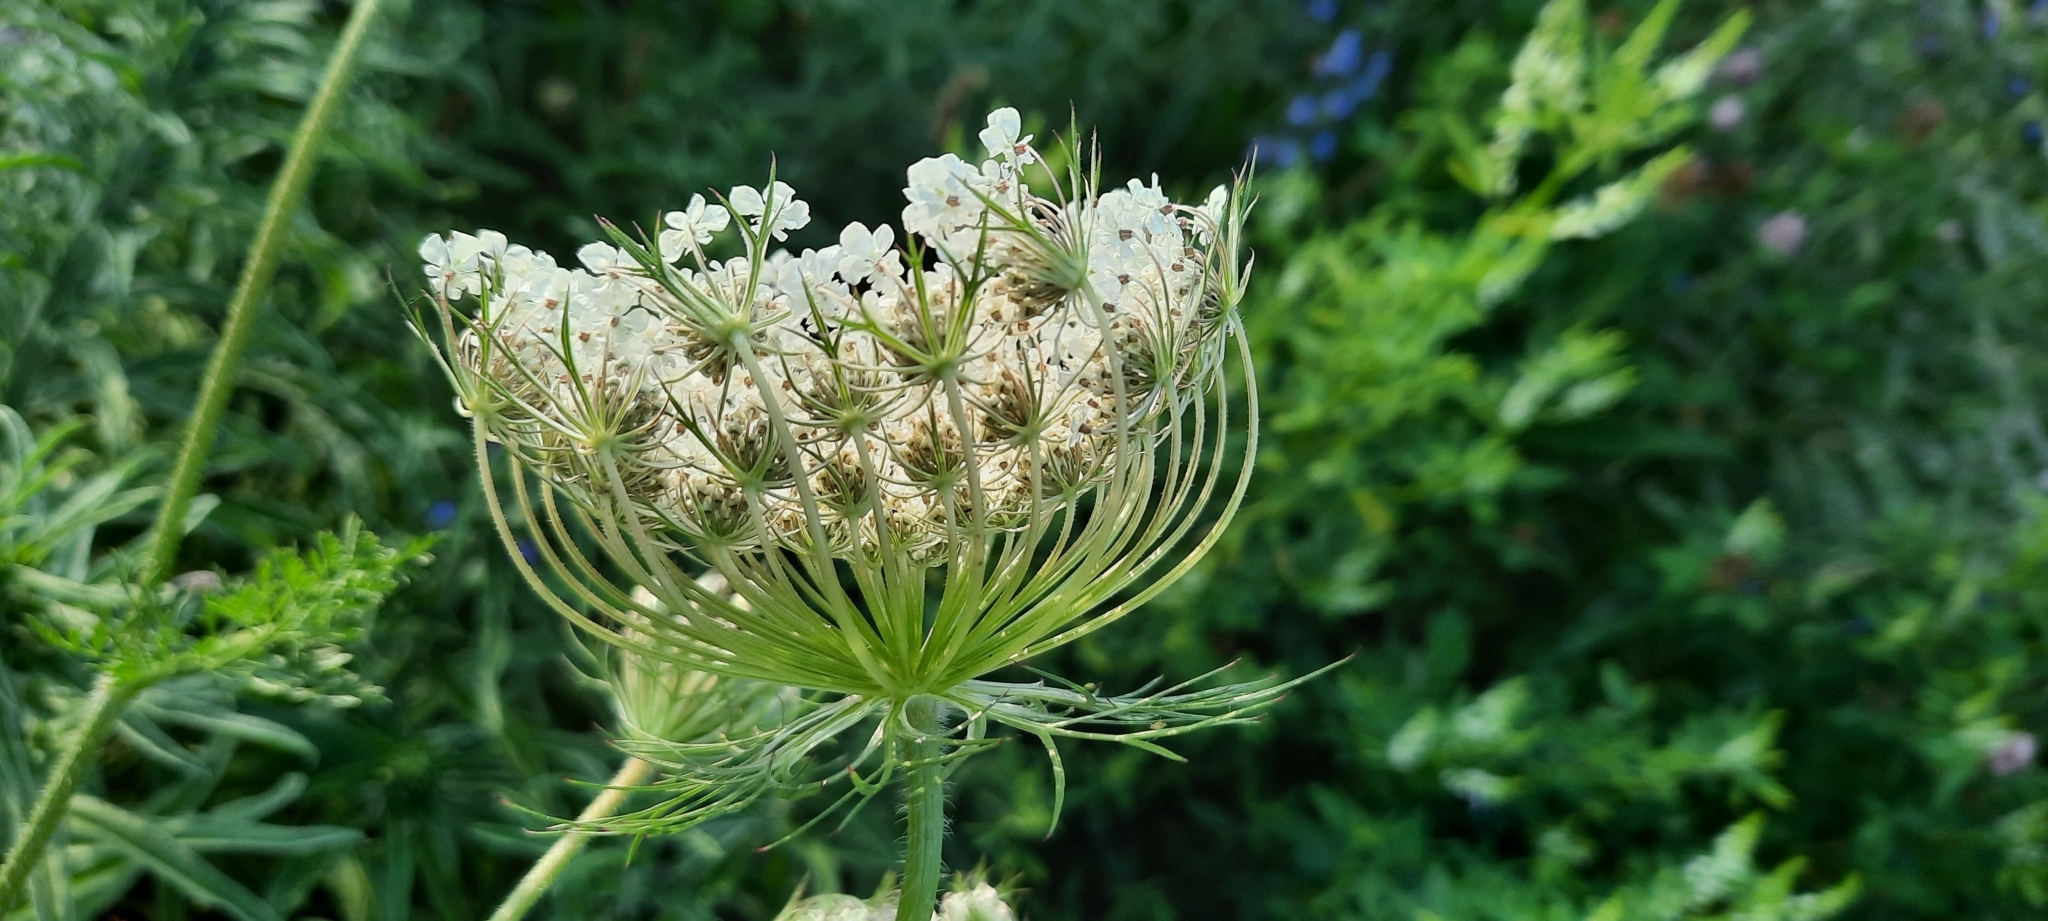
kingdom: Plantae
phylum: Tracheophyta
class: Magnoliopsida
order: Apiales
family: Apiaceae
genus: Daucus
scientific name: Daucus carota
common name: Wild carrot
